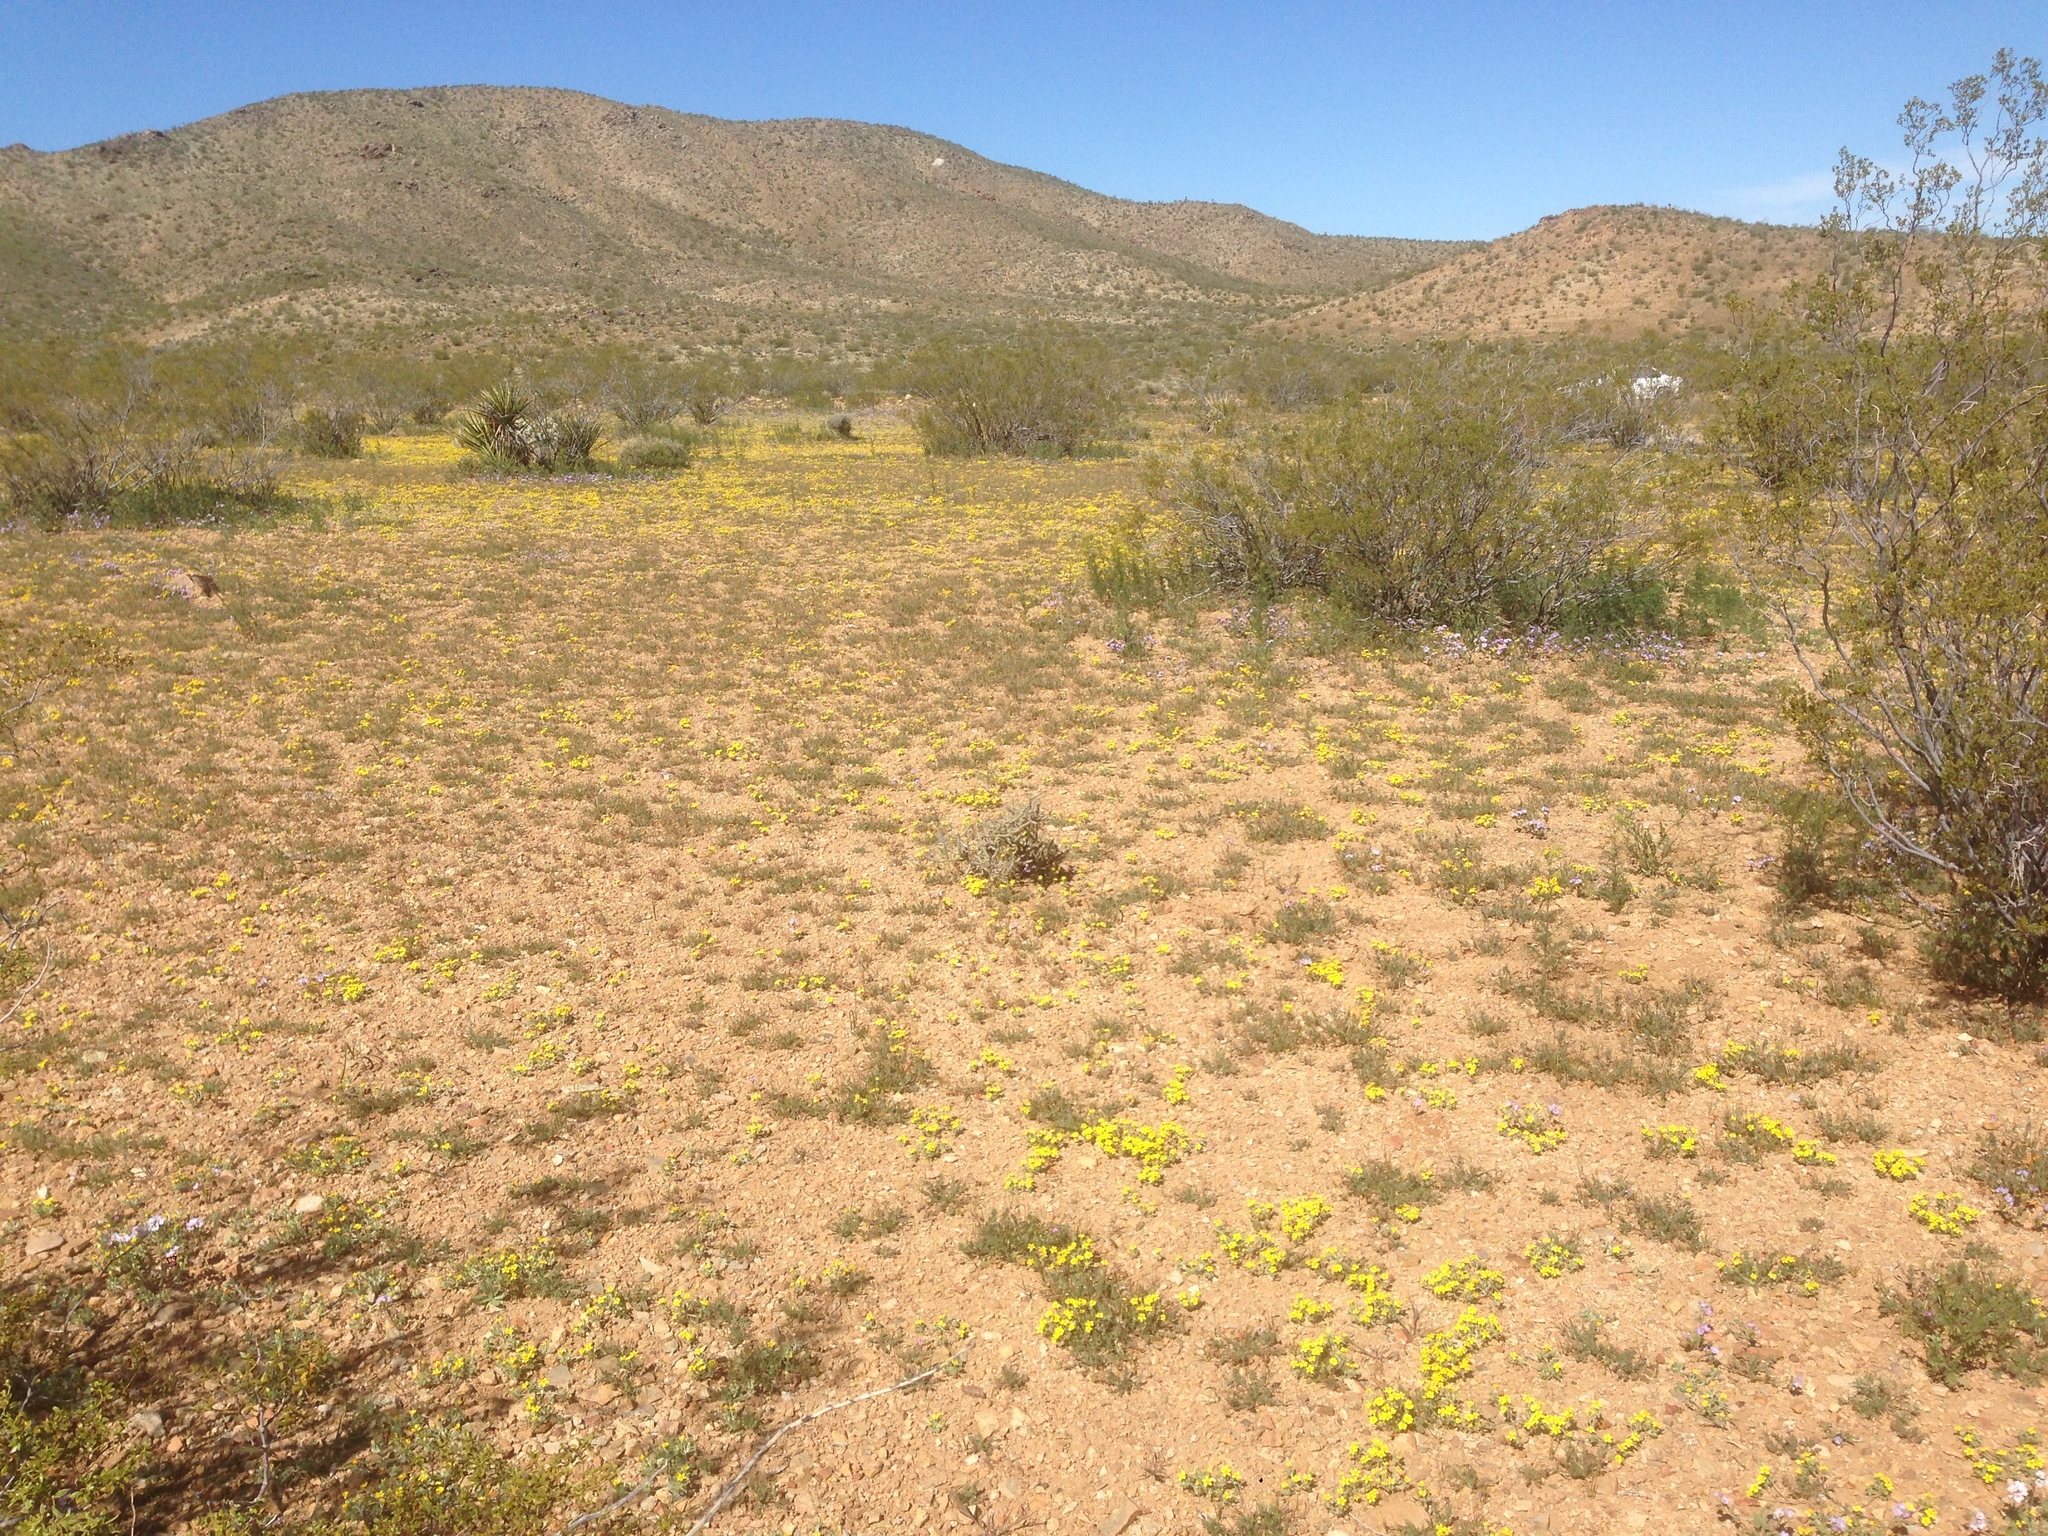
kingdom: Plantae
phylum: Tracheophyta
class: Magnoliopsida
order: Zygophyllales
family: Zygophyllaceae
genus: Larrea
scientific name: Larrea tridentata
